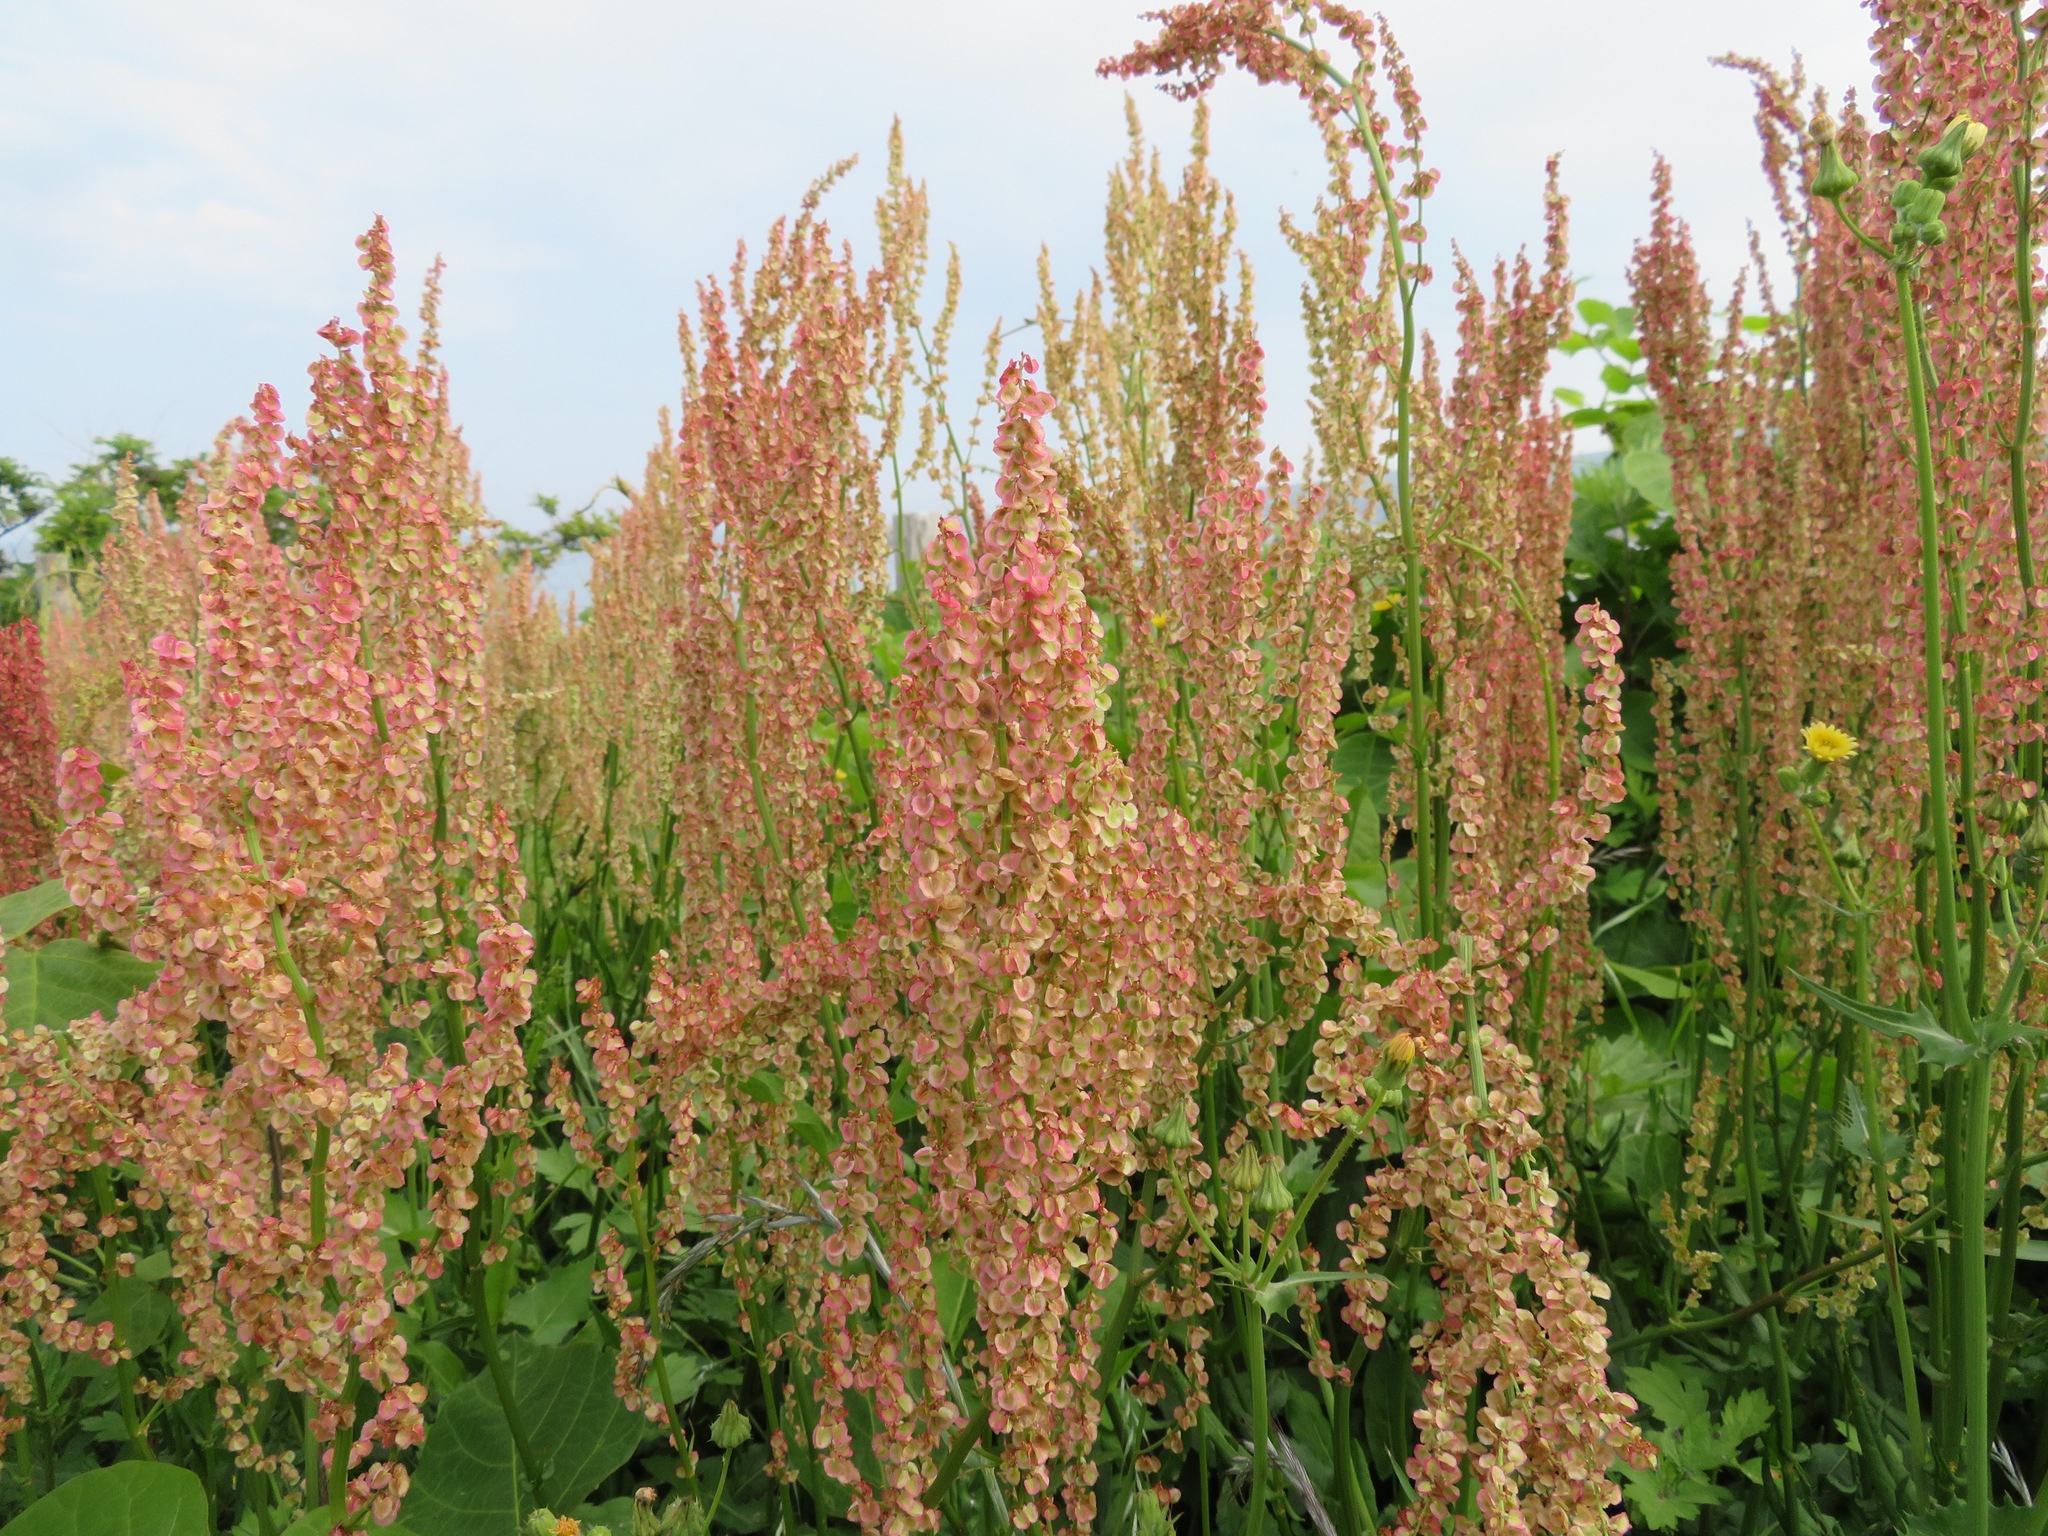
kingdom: Plantae
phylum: Tracheophyta
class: Magnoliopsida
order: Caryophyllales
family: Polygonaceae
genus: Rumex
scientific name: Rumex acetosa
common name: Garden sorrel
